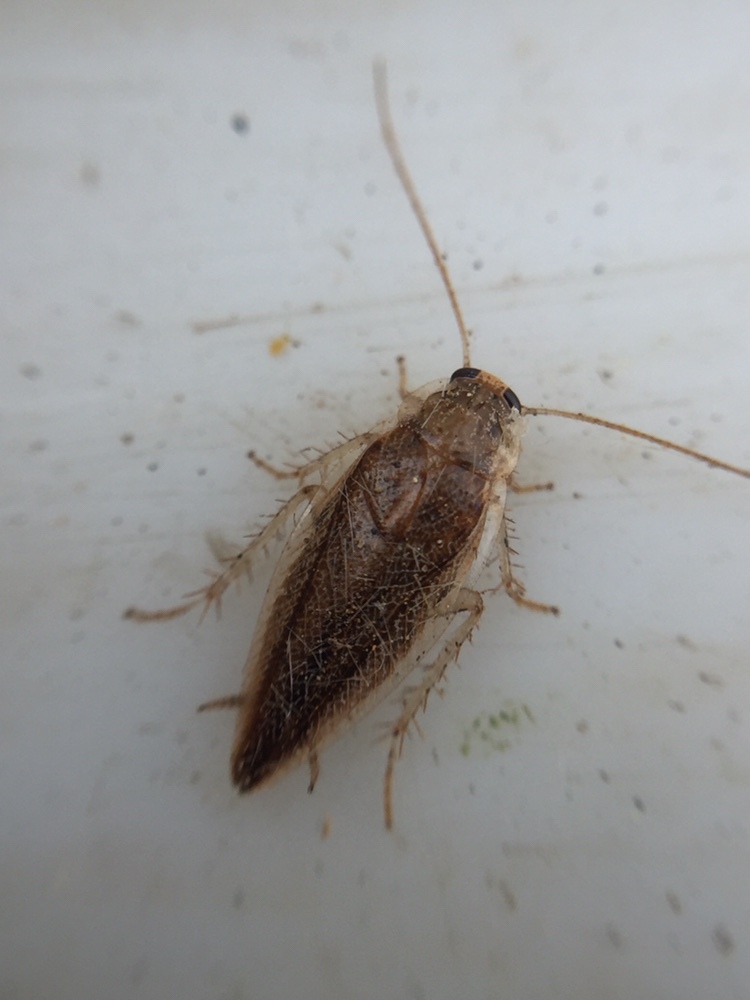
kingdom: Animalia
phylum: Arthropoda
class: Insecta
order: Blattodea
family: Ectobiidae
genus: Celeriblattina
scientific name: Celeriblattina major
